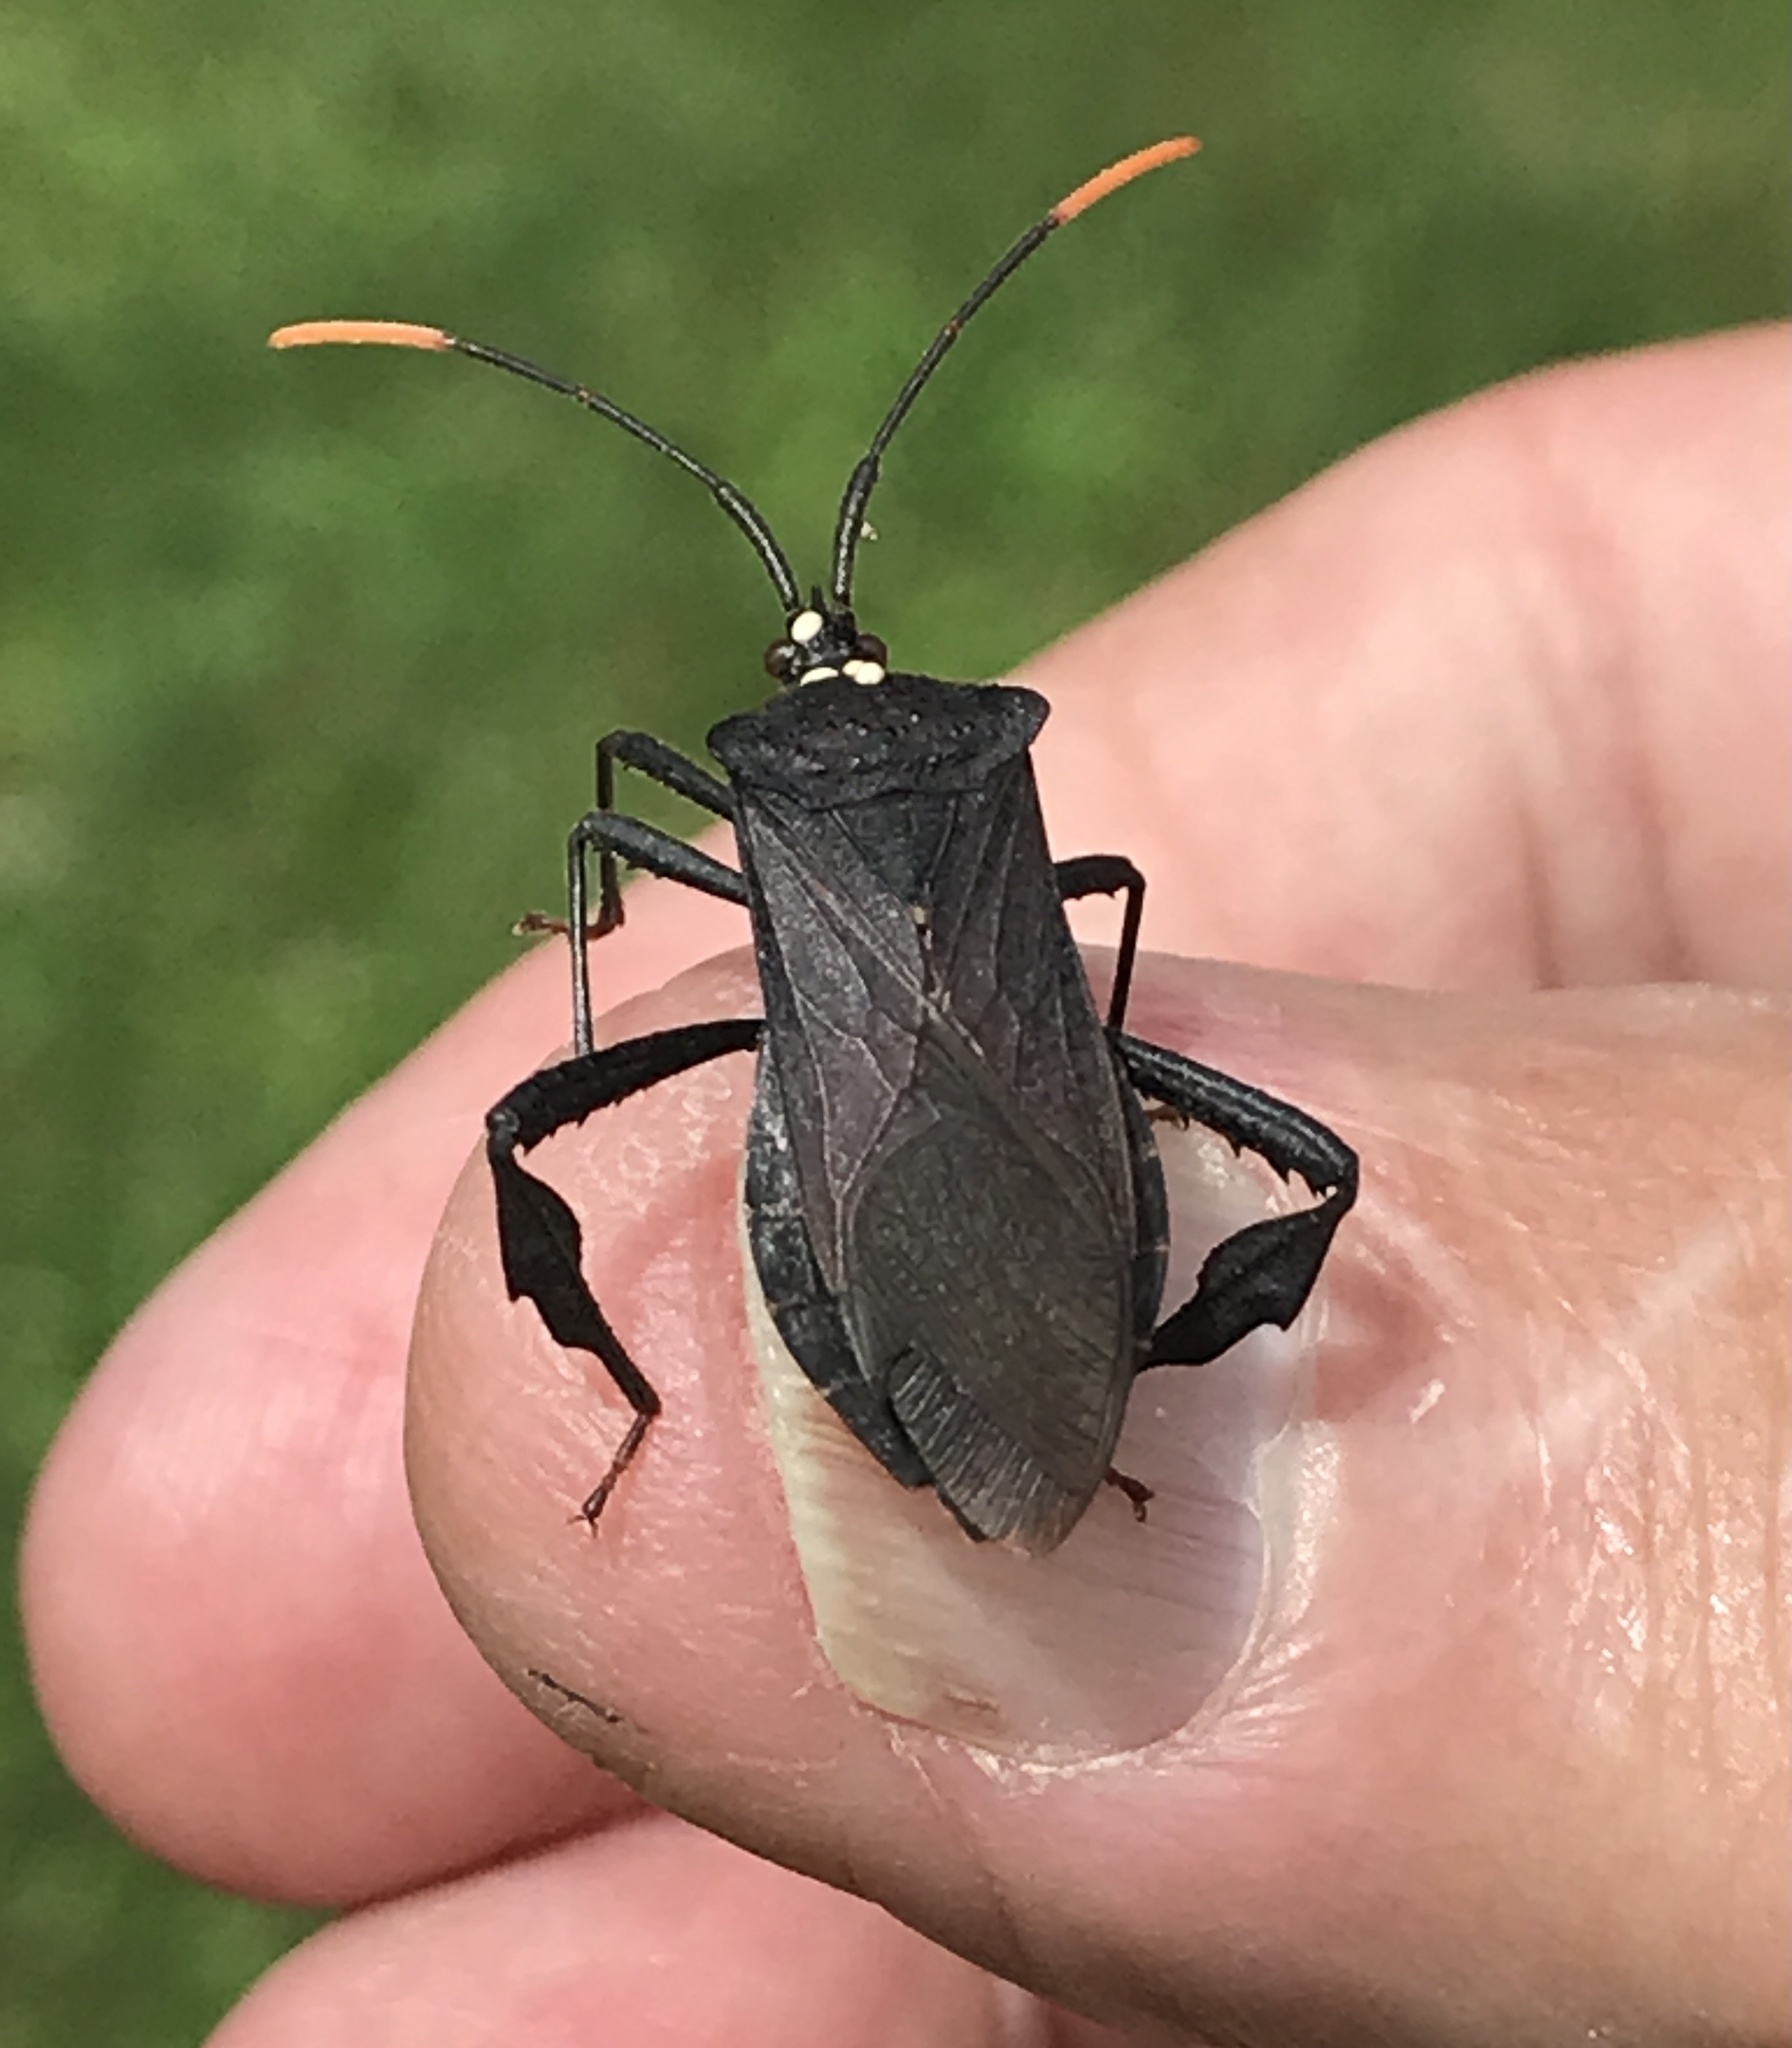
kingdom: Animalia
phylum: Arthropoda
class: Insecta
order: Hemiptera
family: Coreidae
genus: Acanthocephala
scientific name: Acanthocephala terminalis
